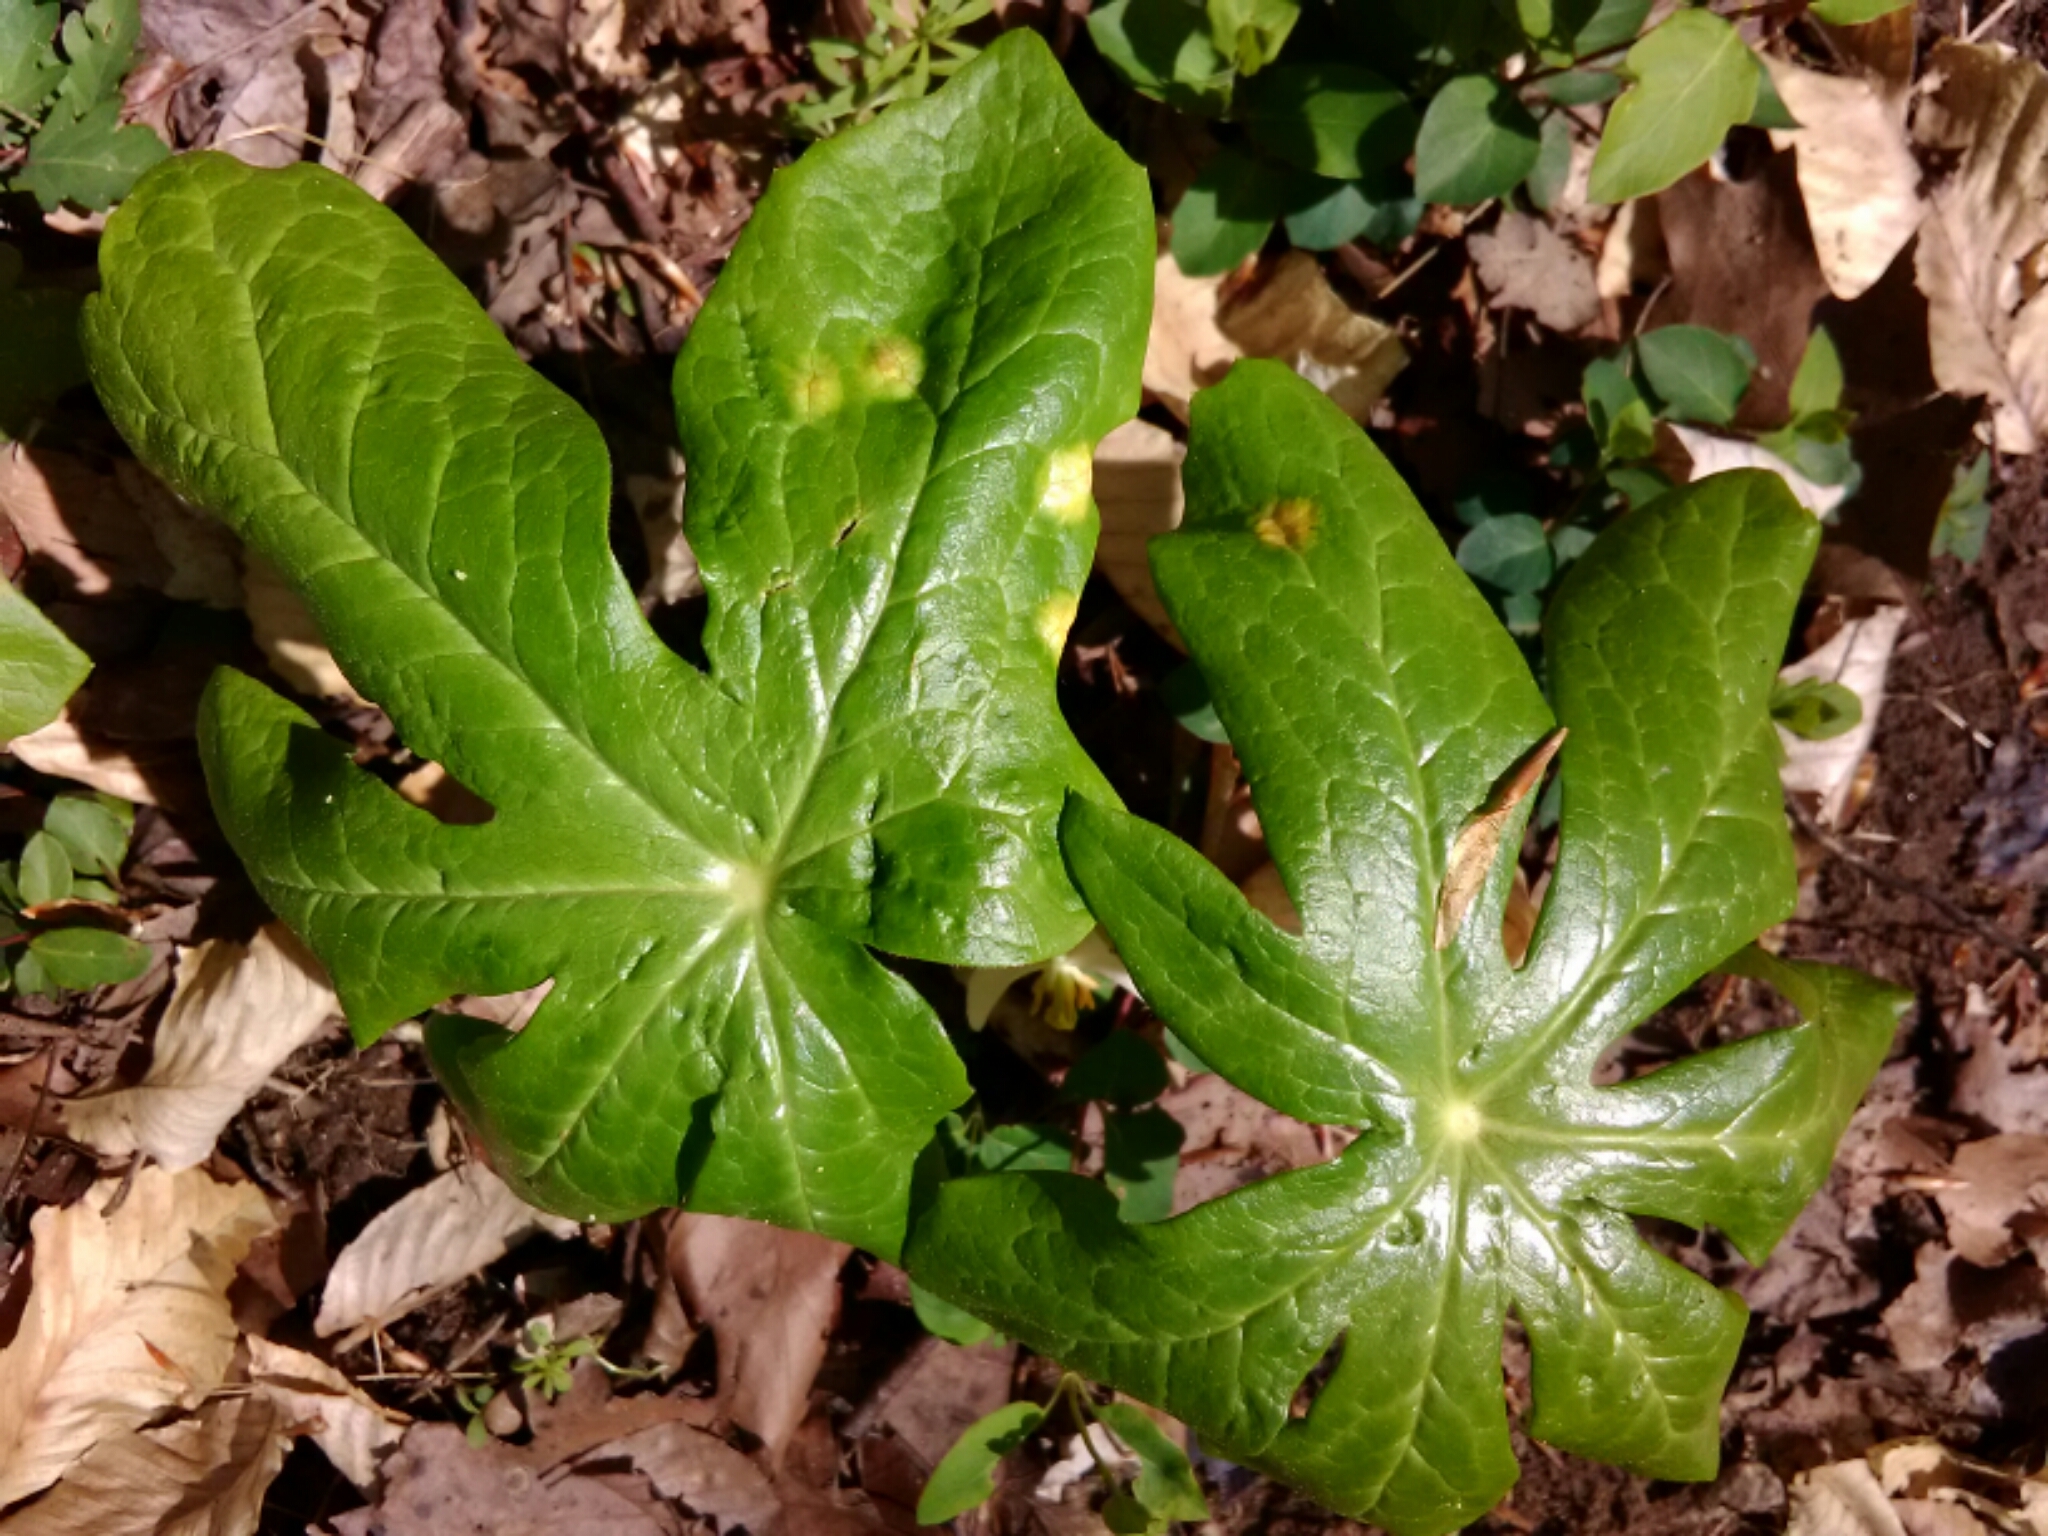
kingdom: Plantae
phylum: Tracheophyta
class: Magnoliopsida
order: Ranunculales
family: Berberidaceae
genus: Podophyllum
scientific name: Podophyllum peltatum
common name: Wild mandrake
